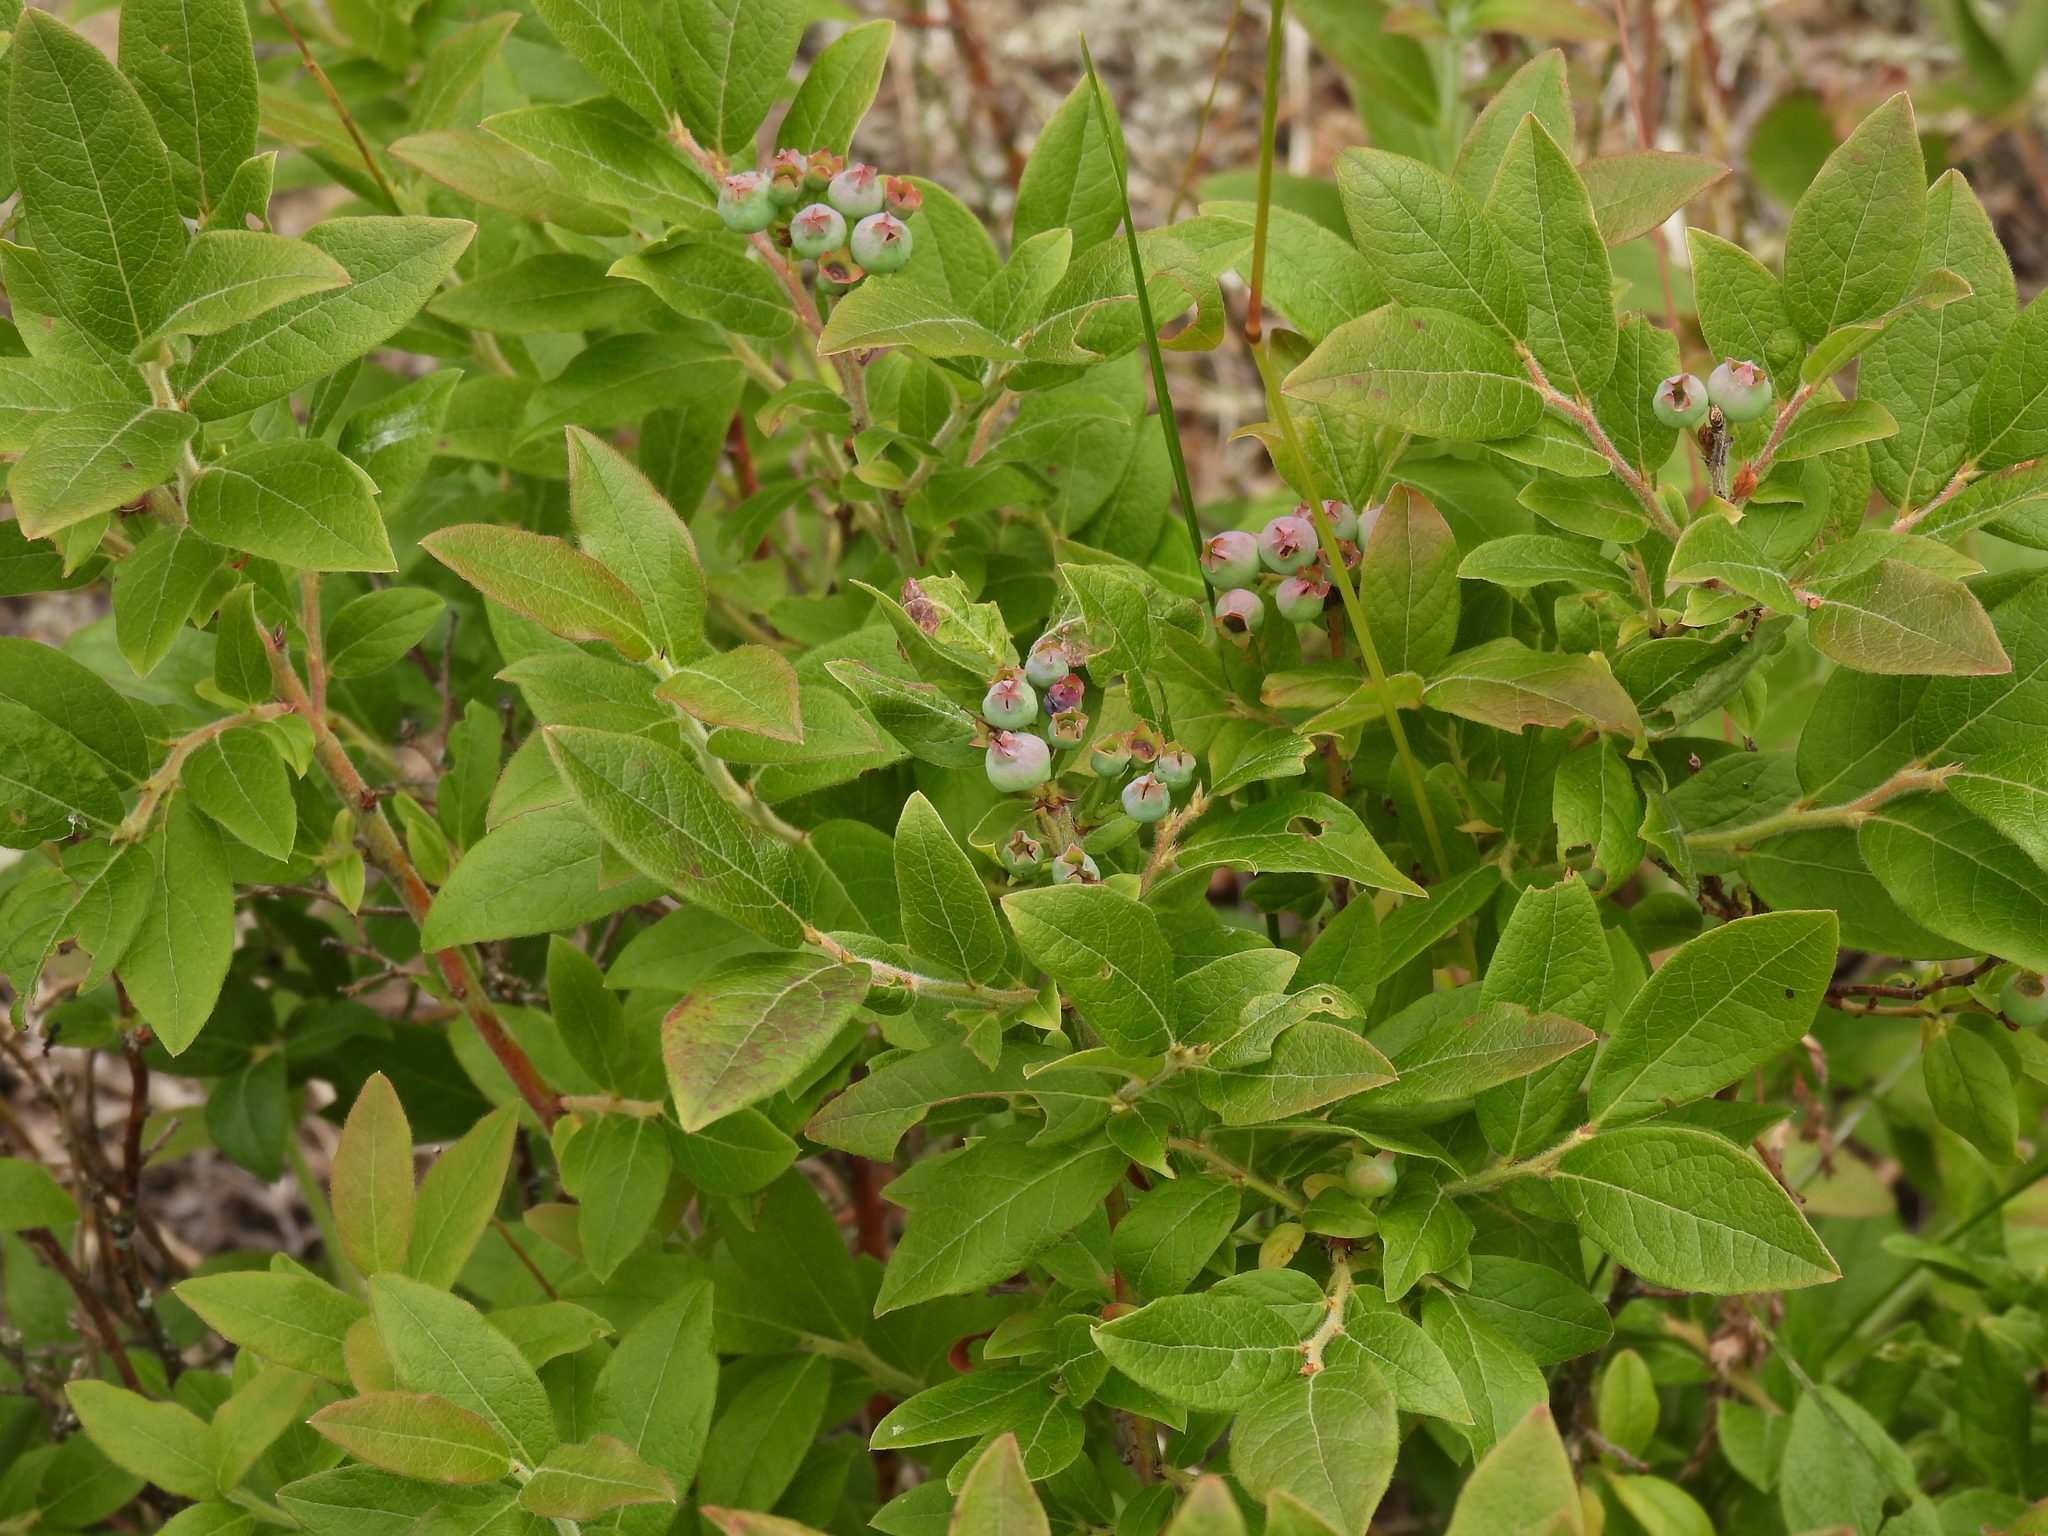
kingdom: Plantae
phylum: Tracheophyta
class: Magnoliopsida
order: Ericales
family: Ericaceae
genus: Vaccinium
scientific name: Vaccinium angustifolium
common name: Early lowbush blueberry
